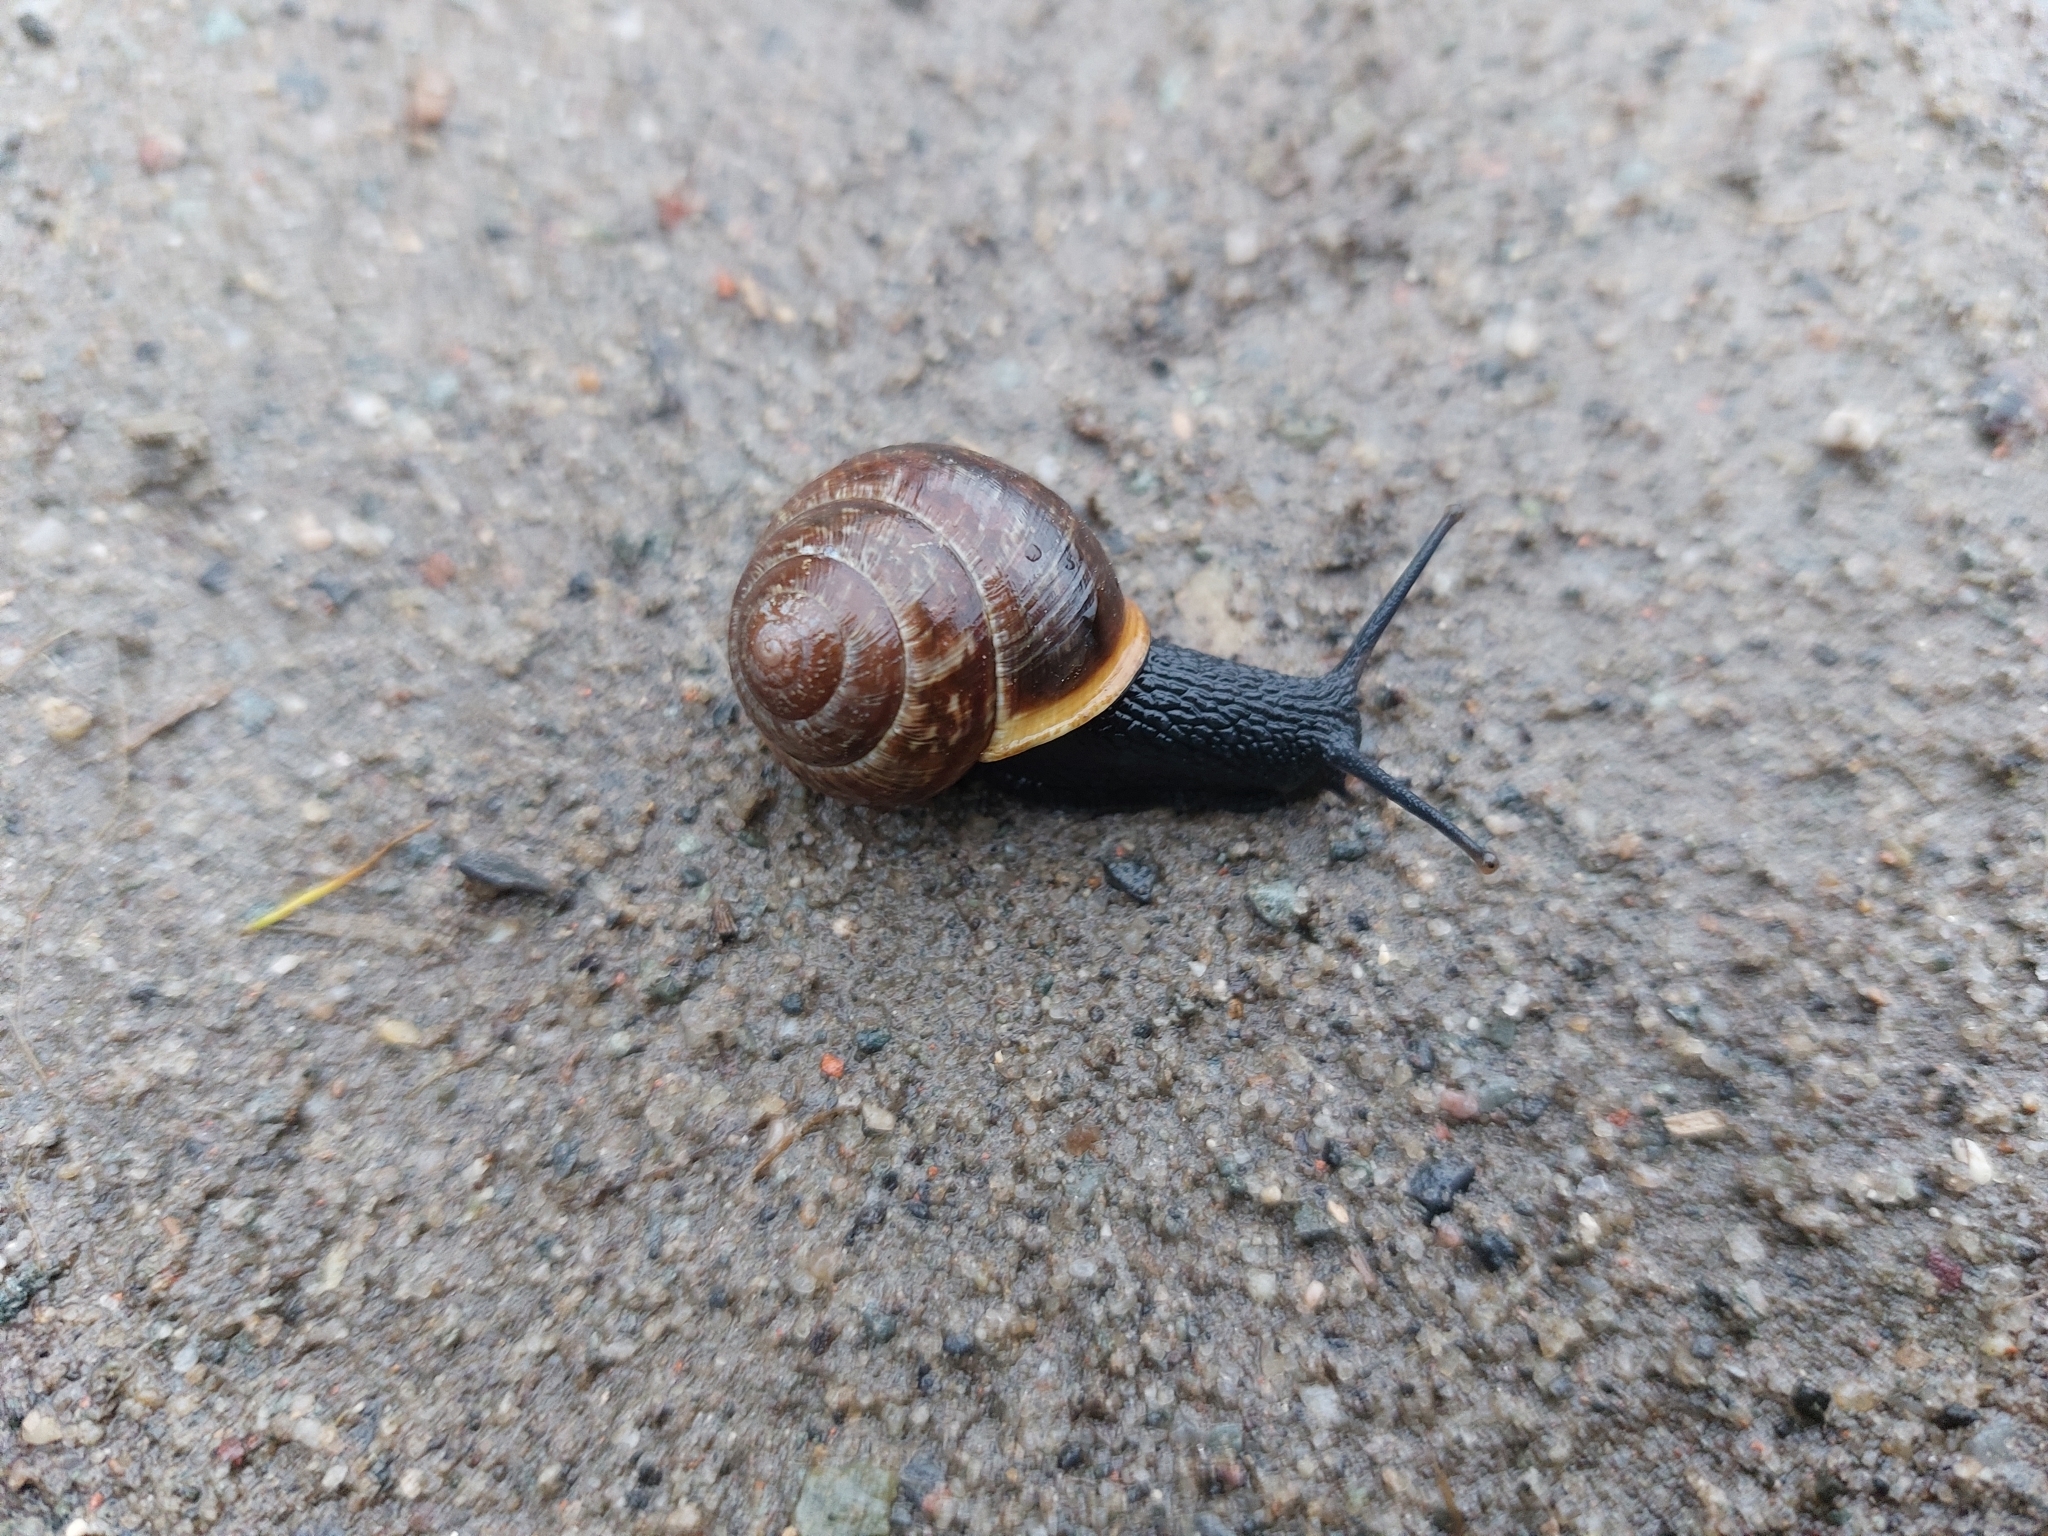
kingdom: Animalia
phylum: Mollusca
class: Gastropoda
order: Stylommatophora
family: Helicidae
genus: Arianta
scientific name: Arianta arbustorum
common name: Copse snail
